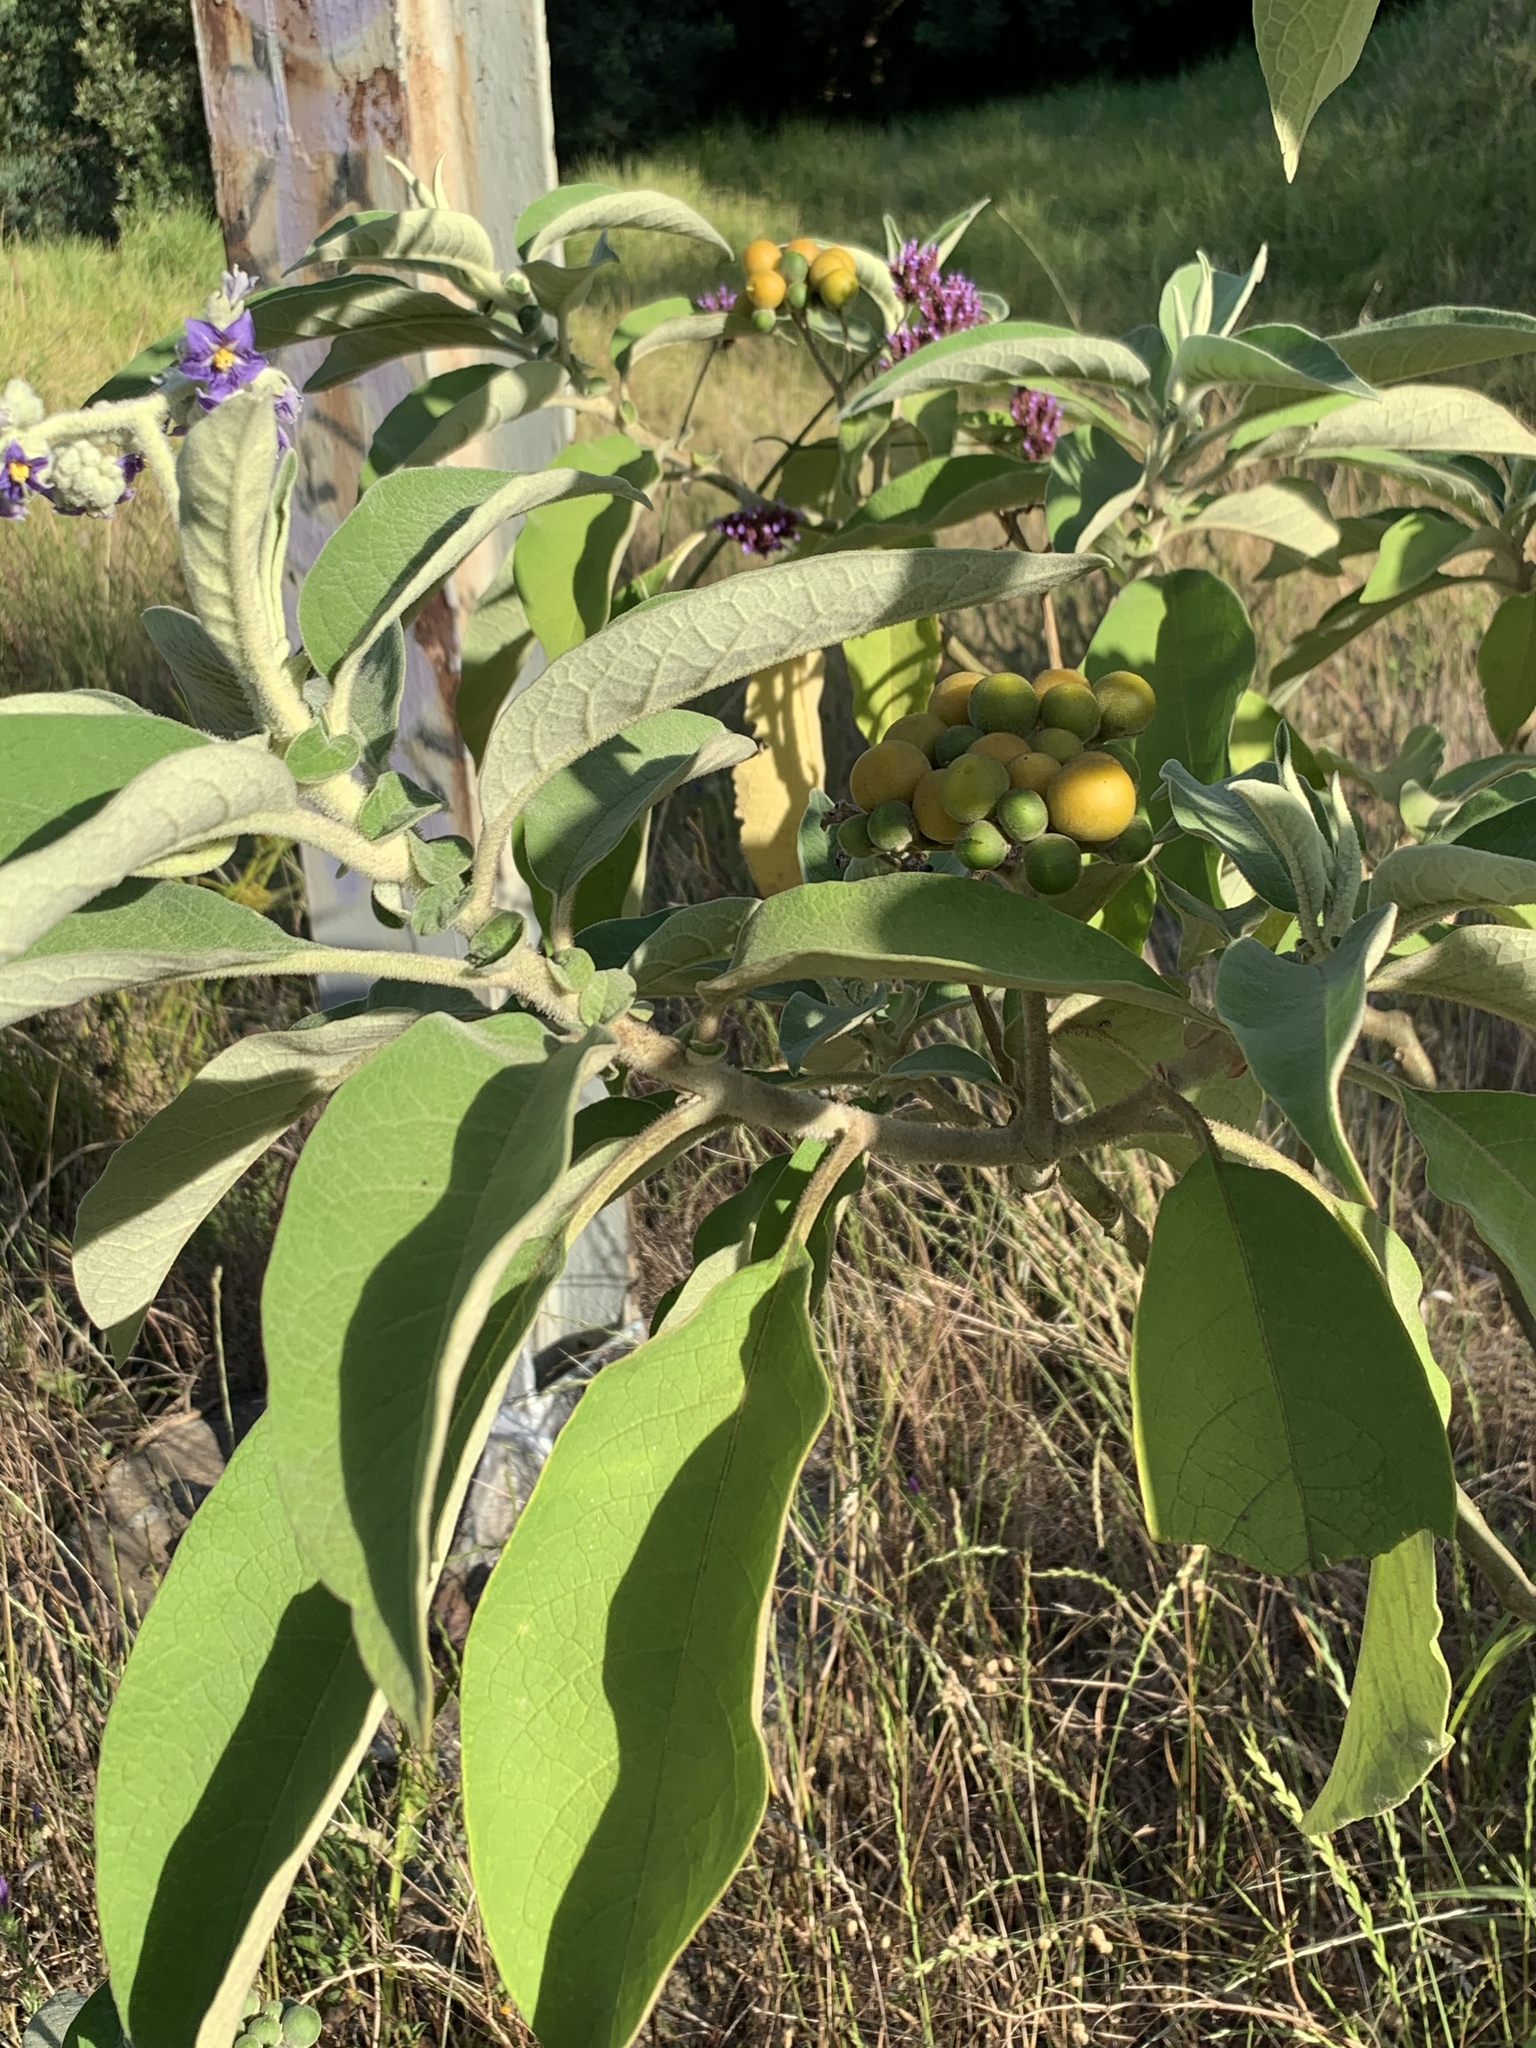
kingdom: Plantae
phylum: Tracheophyta
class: Magnoliopsida
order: Solanales
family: Solanaceae
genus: Solanum
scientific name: Solanum mauritianum
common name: Earleaf nightshade
